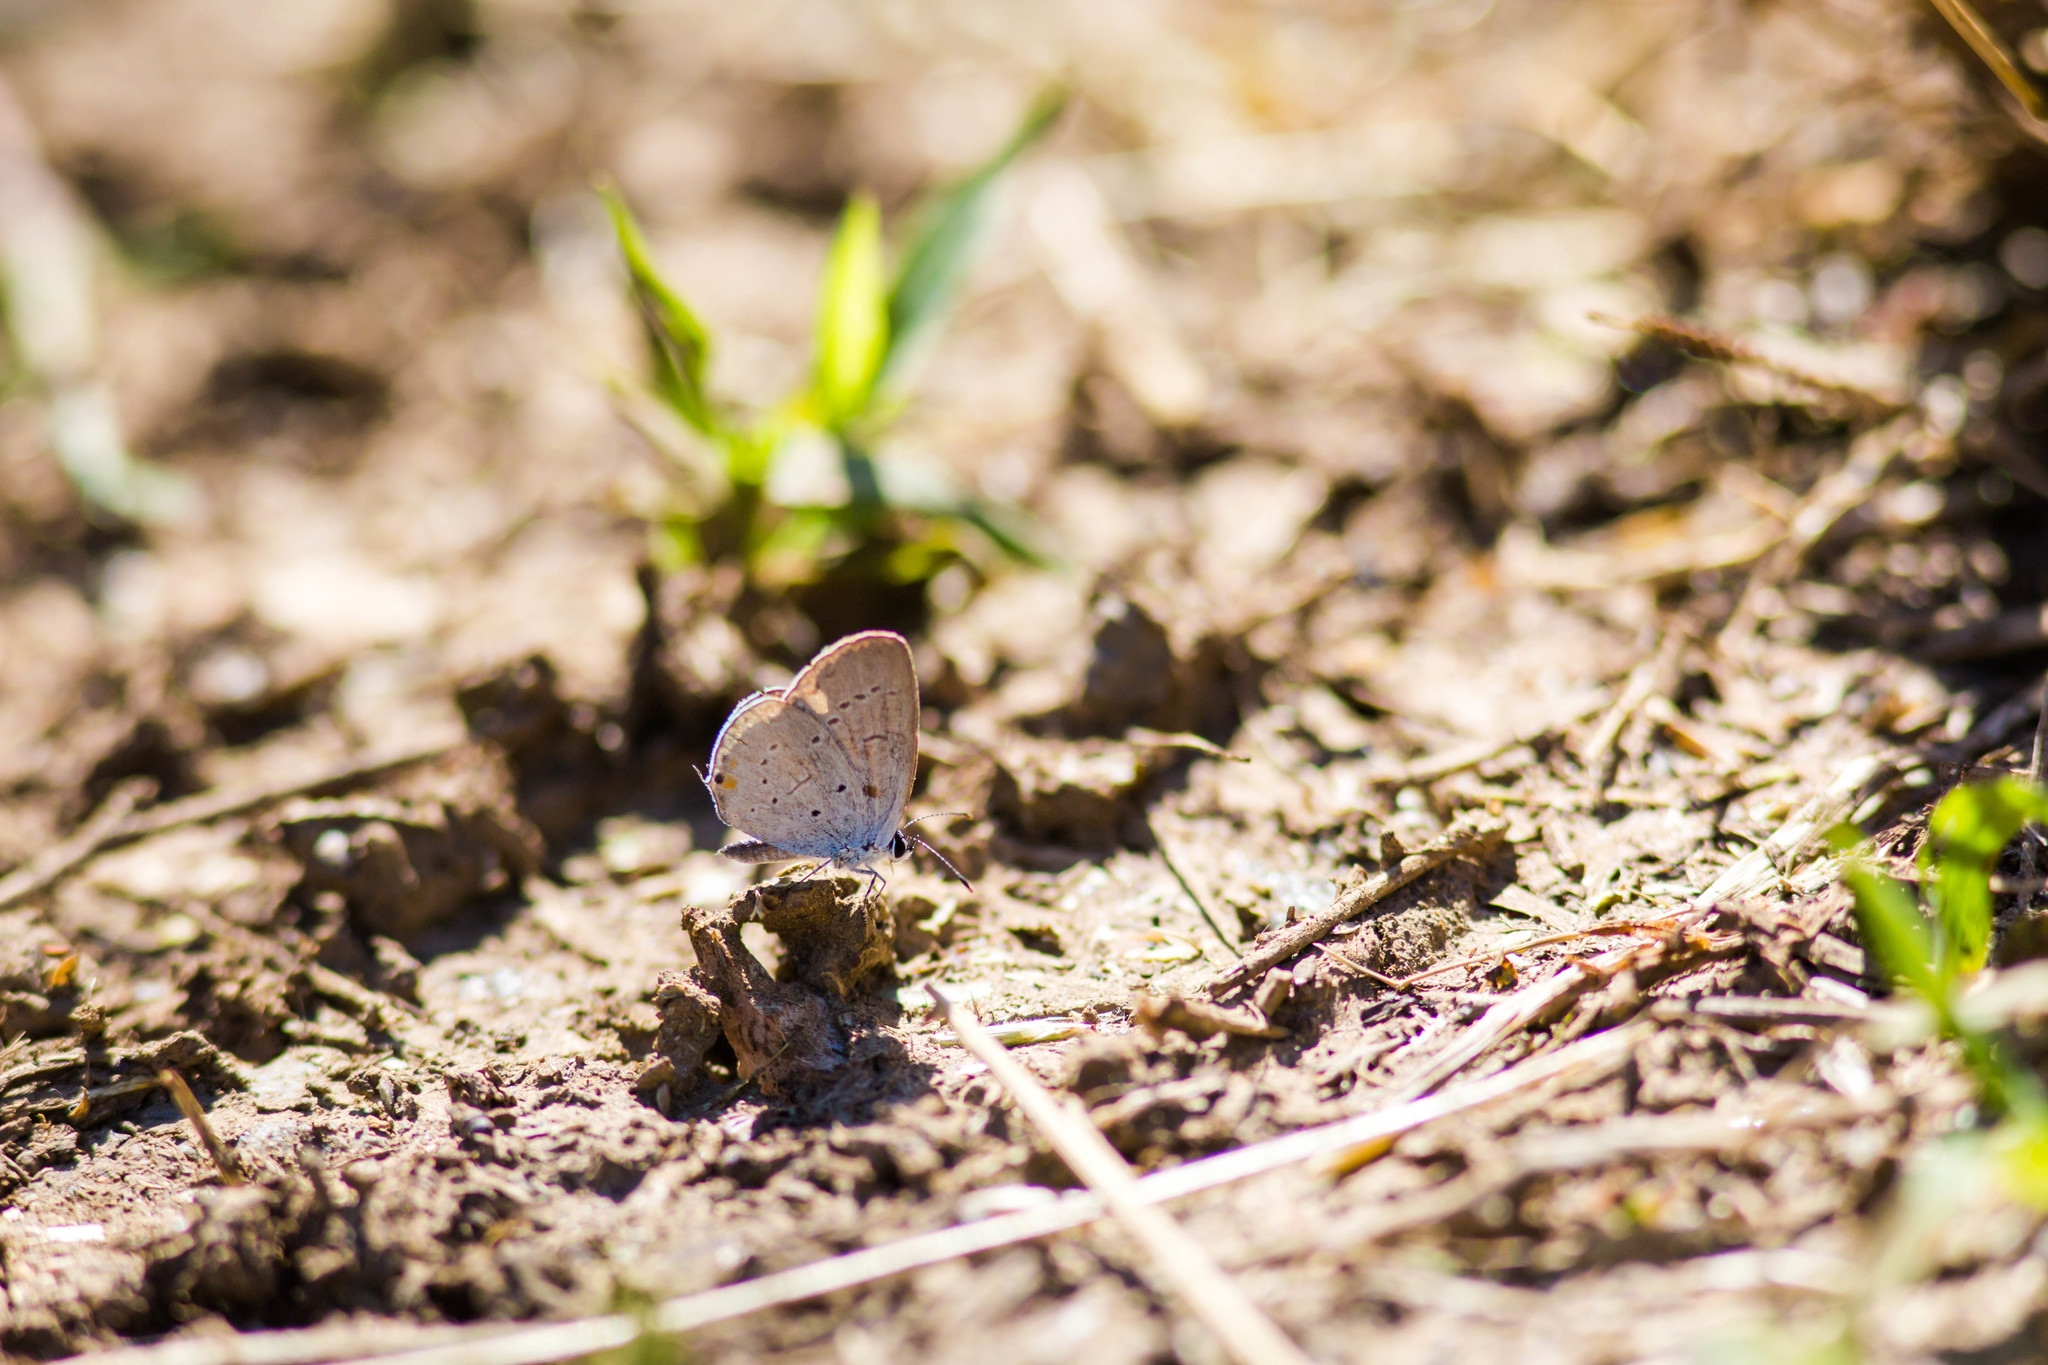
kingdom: Animalia
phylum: Arthropoda
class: Insecta
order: Lepidoptera
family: Lycaenidae
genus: Elkalyce
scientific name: Elkalyce comyntas
